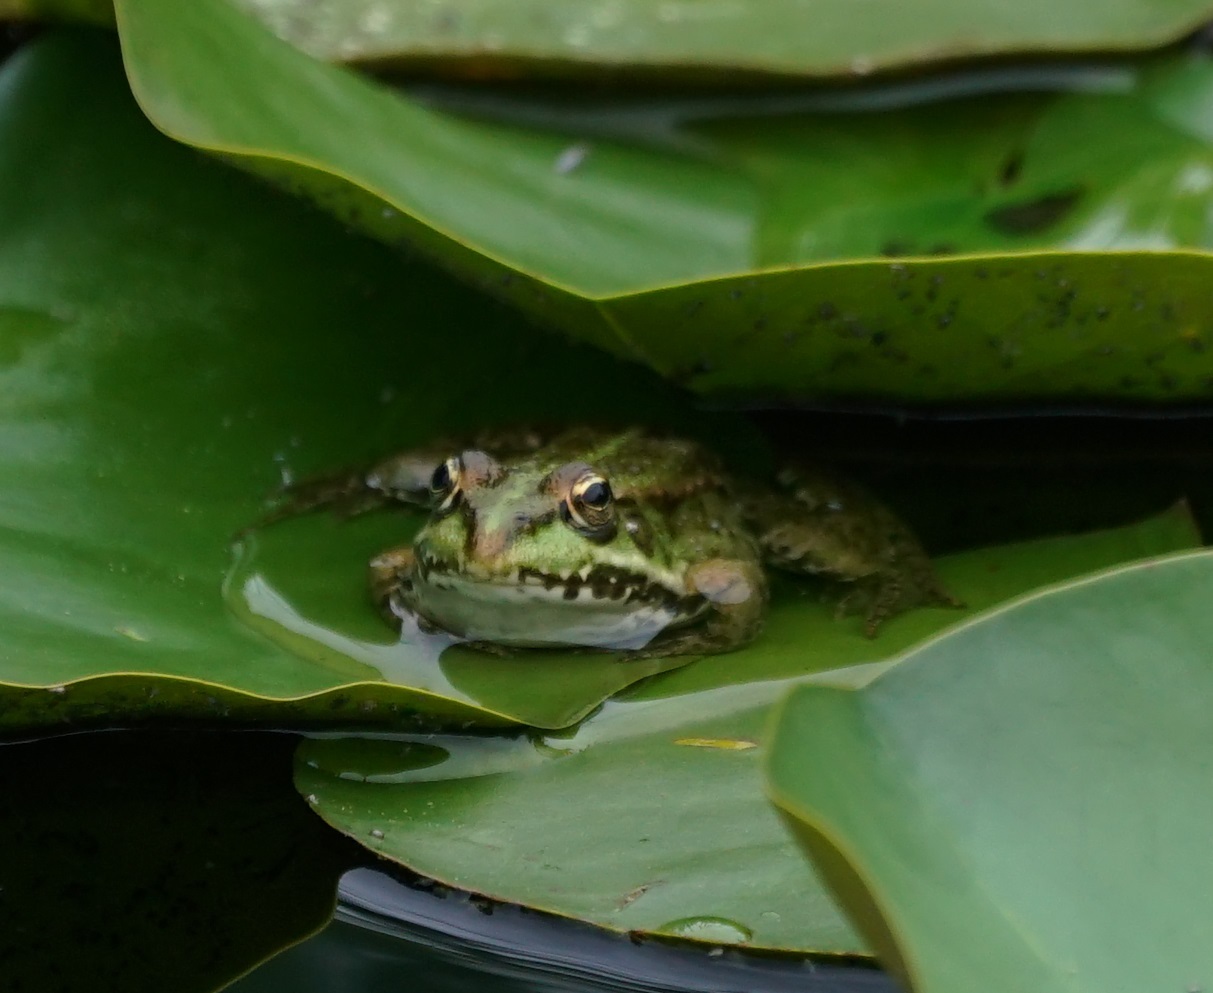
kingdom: Animalia
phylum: Chordata
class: Amphibia
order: Anura
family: Ranidae
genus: Pelophylax
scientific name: Pelophylax
